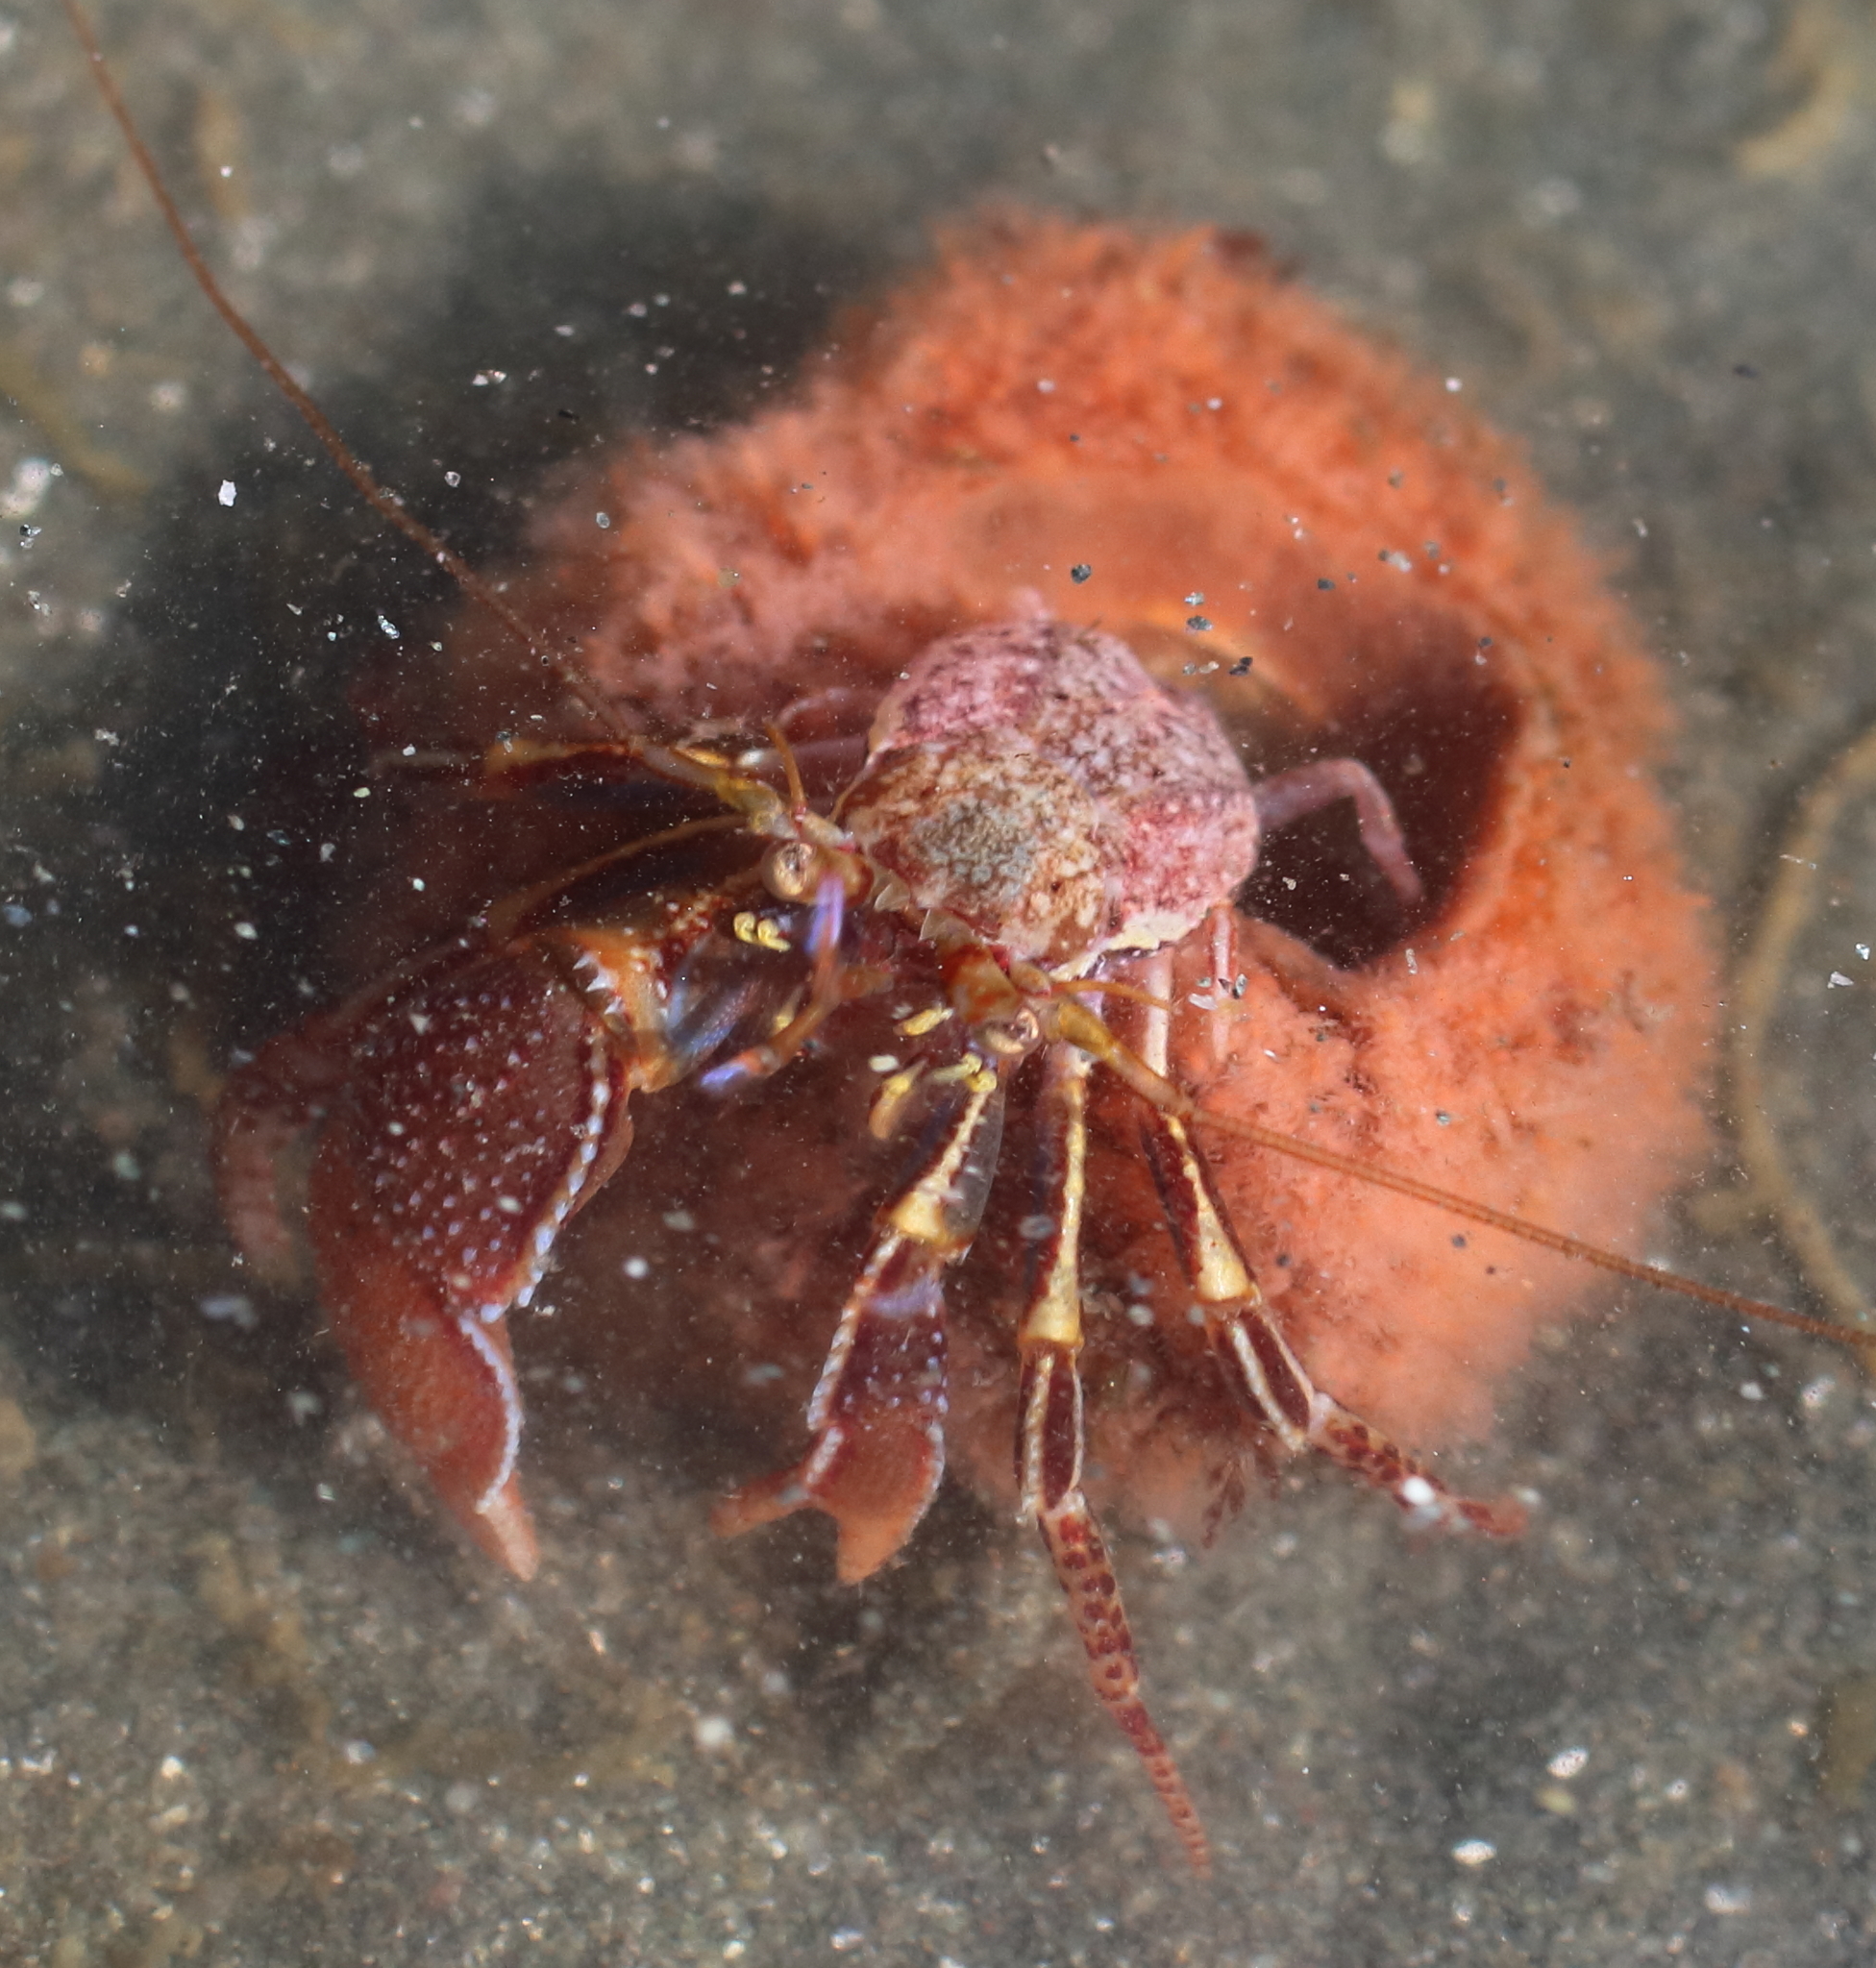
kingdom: Animalia
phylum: Arthropoda
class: Malacostraca
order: Decapoda
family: Paguridae
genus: Elassochirus
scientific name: Elassochirus tenuimanus
